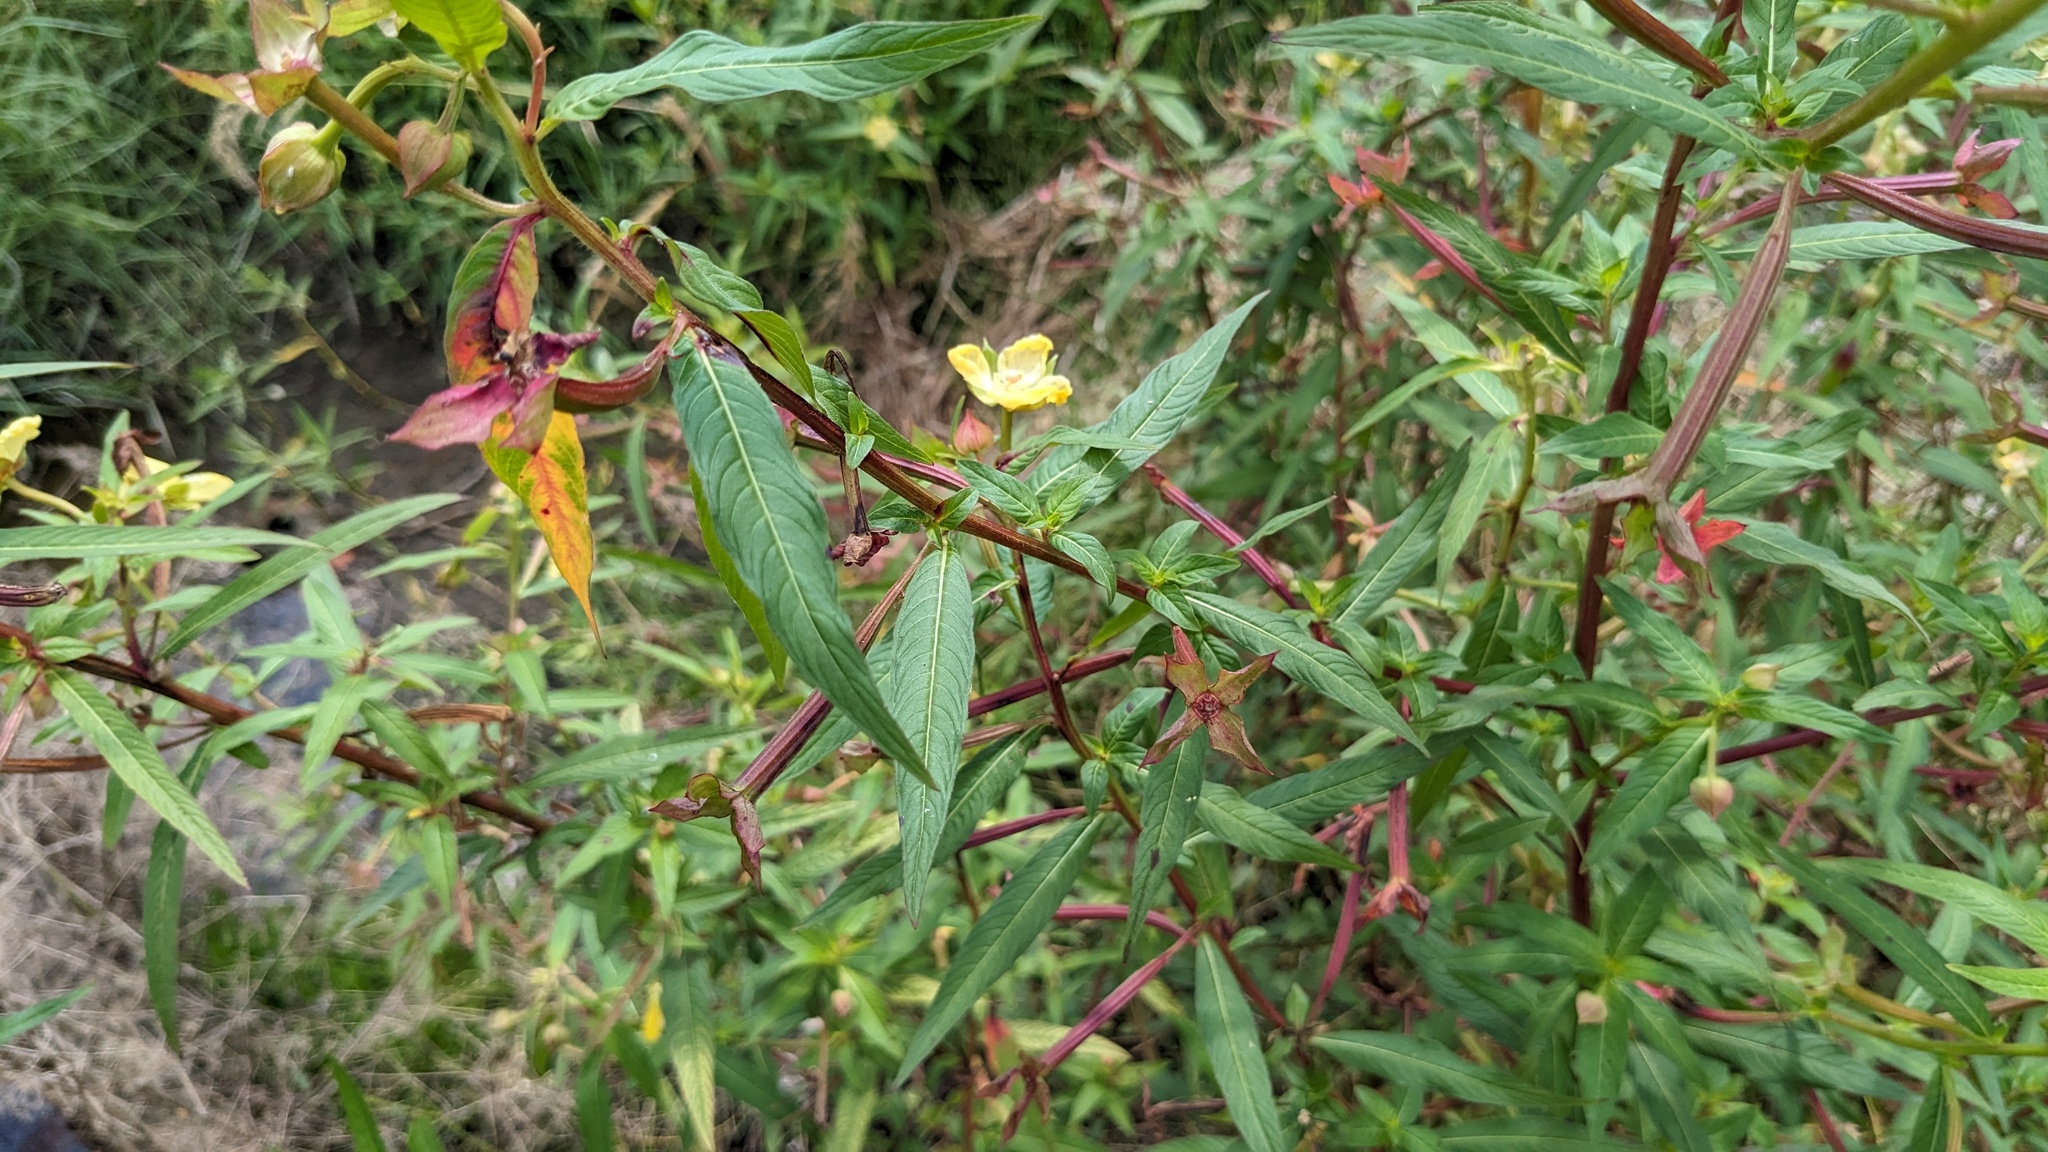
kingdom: Plantae
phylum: Tracheophyta
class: Magnoliopsida
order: Myrtales
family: Onagraceae
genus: Ludwigia
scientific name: Ludwigia octovalvis
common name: Water-primrose
